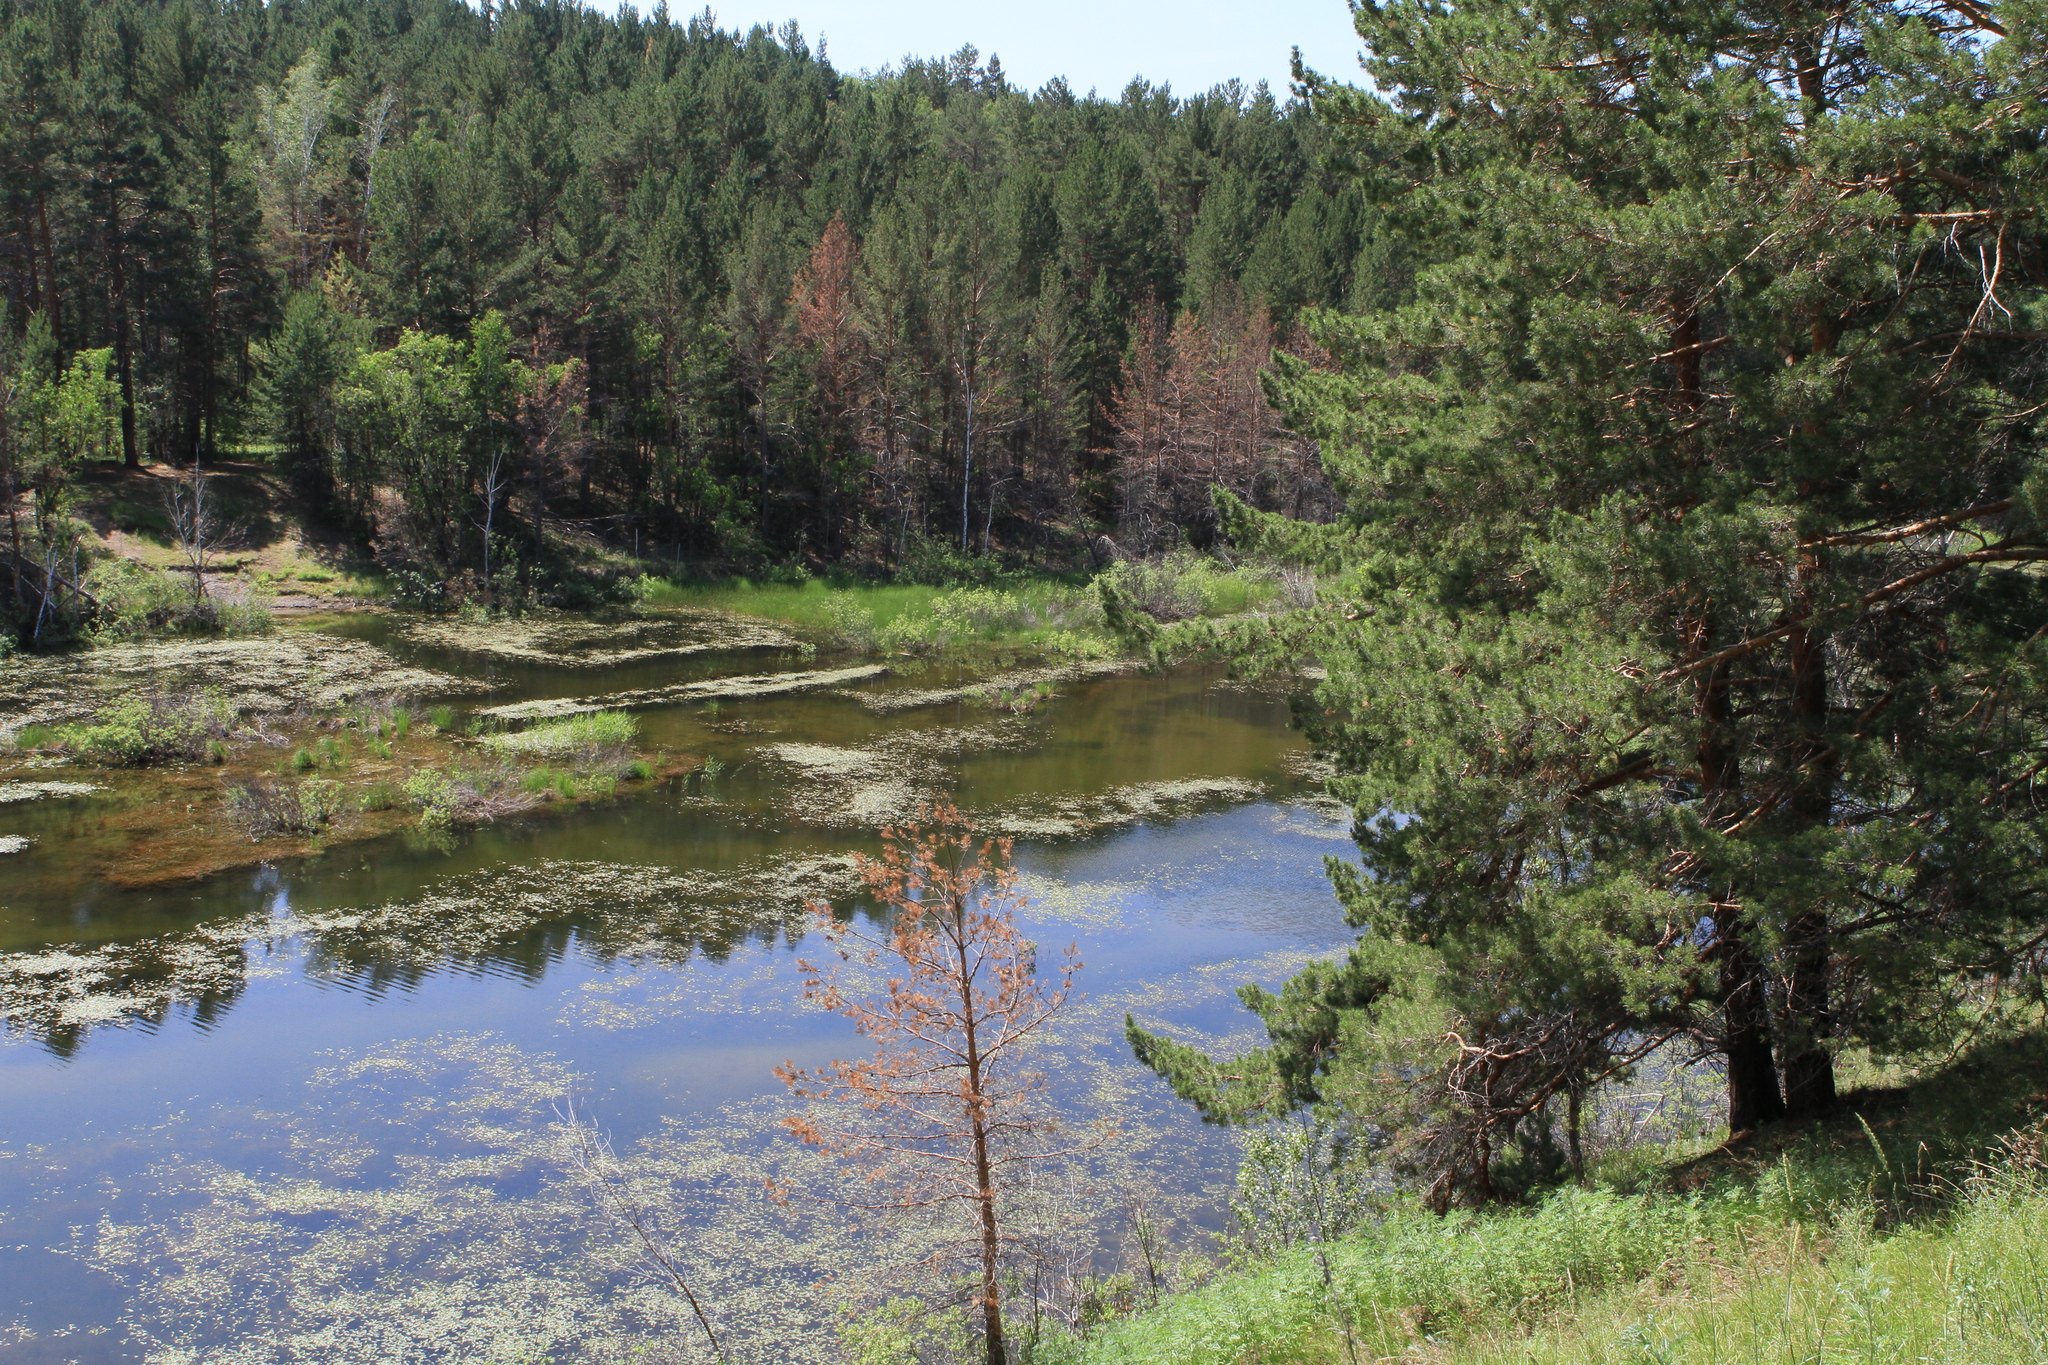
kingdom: Plantae
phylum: Tracheophyta
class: Pinopsida
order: Pinales
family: Pinaceae
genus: Pinus
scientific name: Pinus sylvestris
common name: Scots pine
